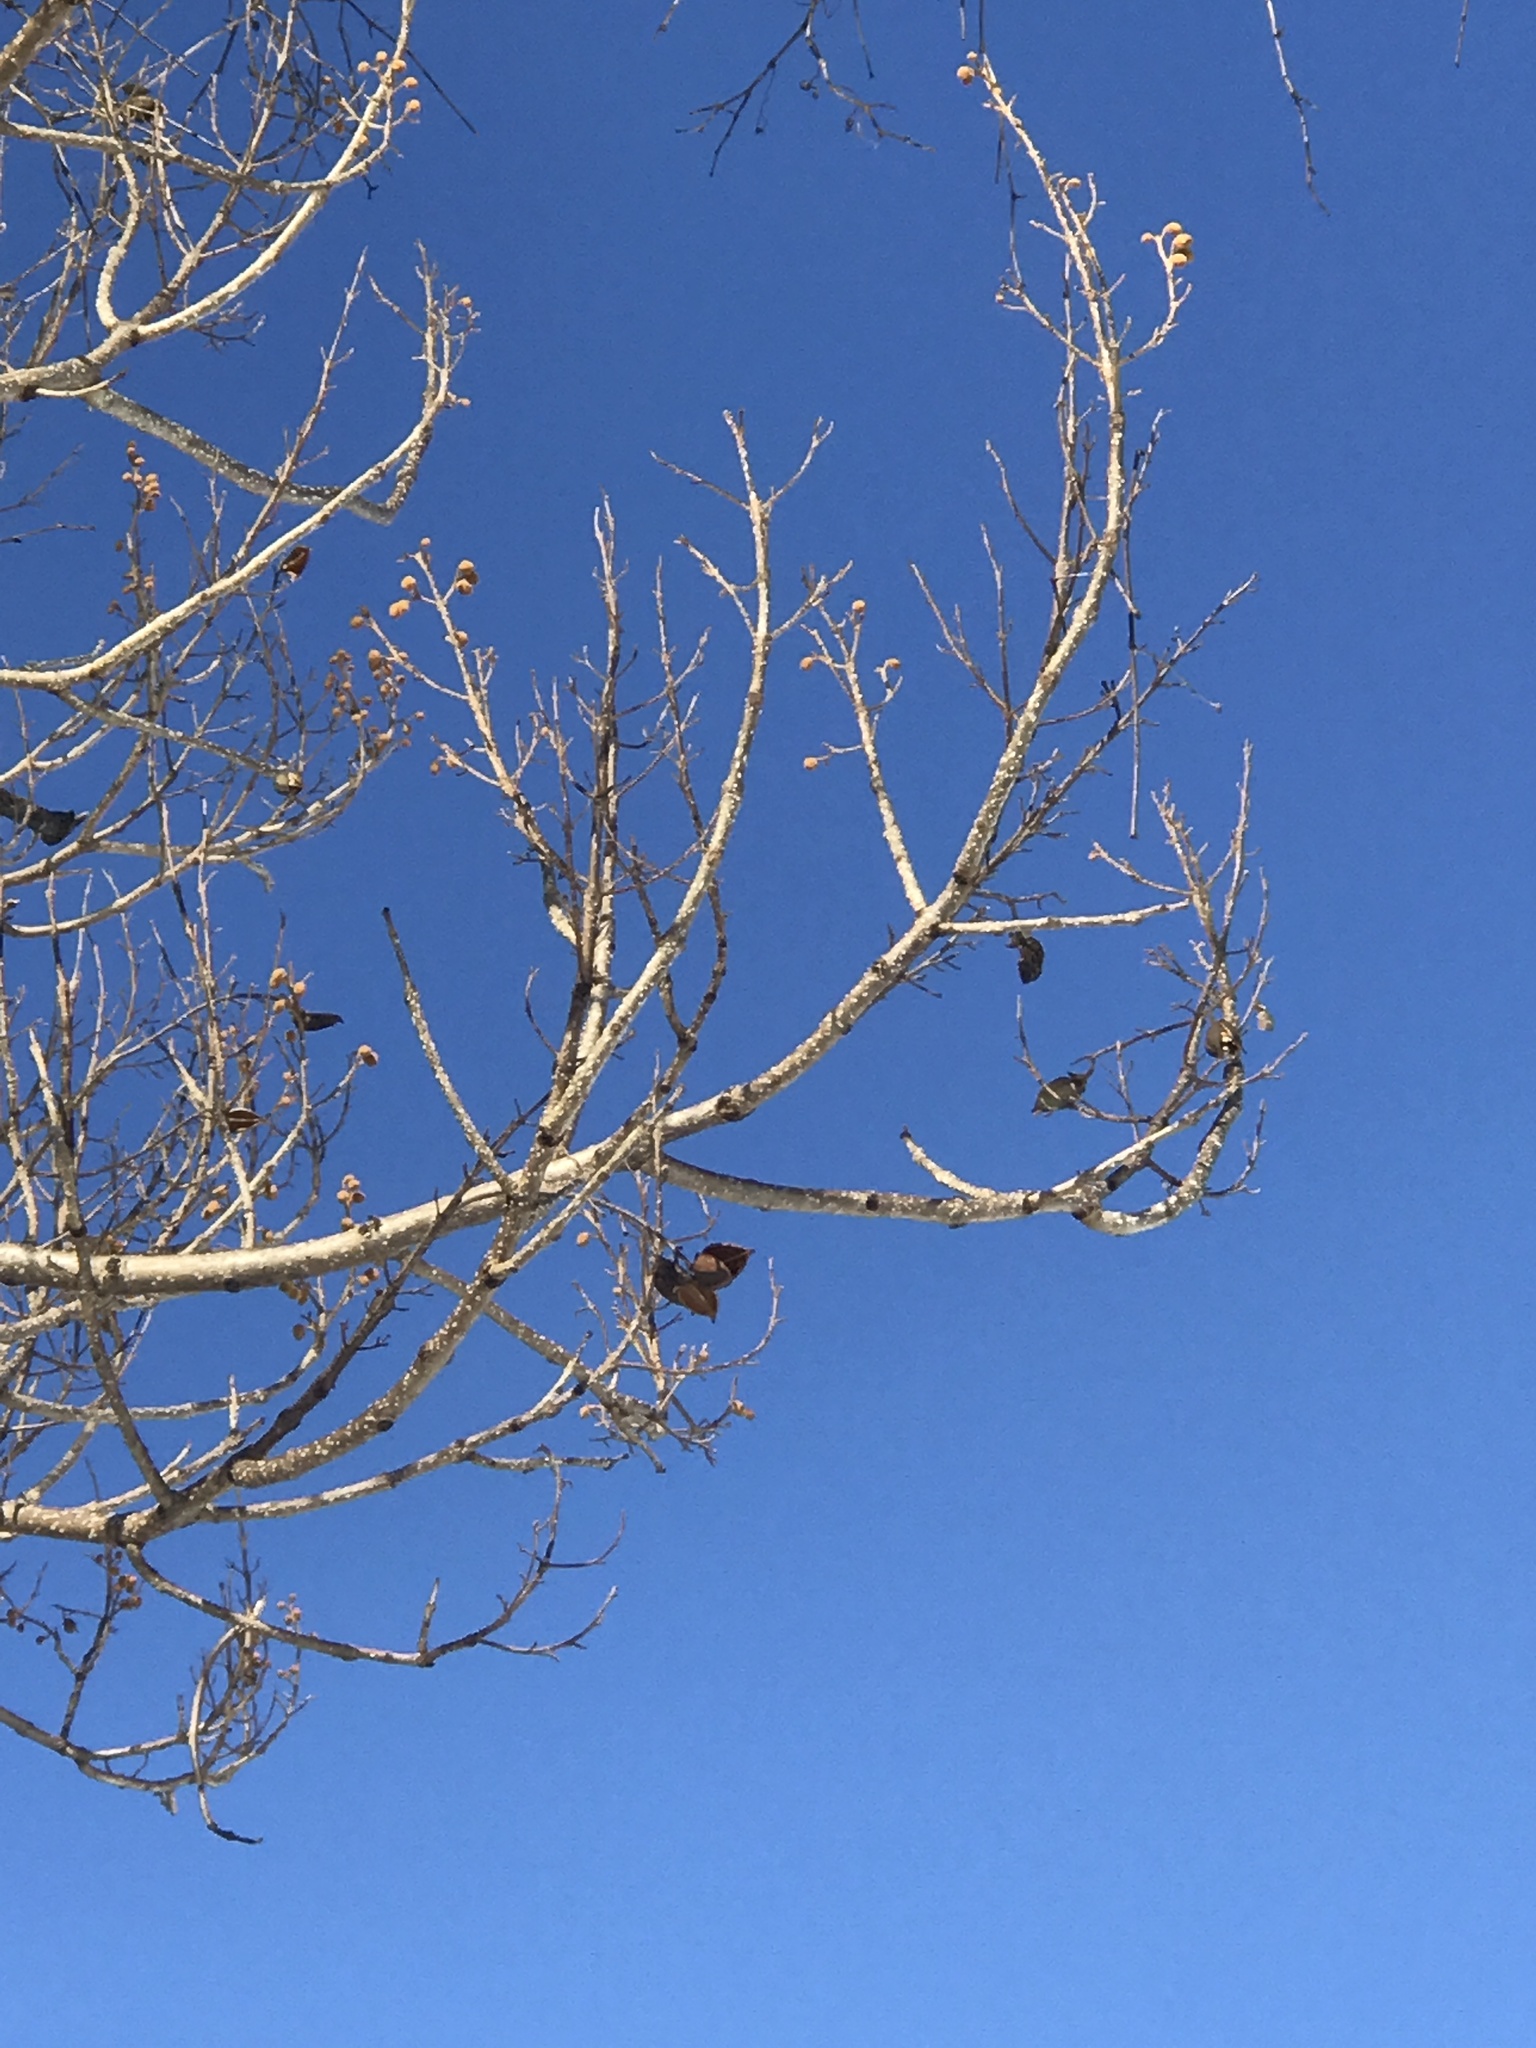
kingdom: Plantae
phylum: Tracheophyta
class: Magnoliopsida
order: Lamiales
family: Paulowniaceae
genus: Paulownia
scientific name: Paulownia tomentosa
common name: Foxglove-tree
